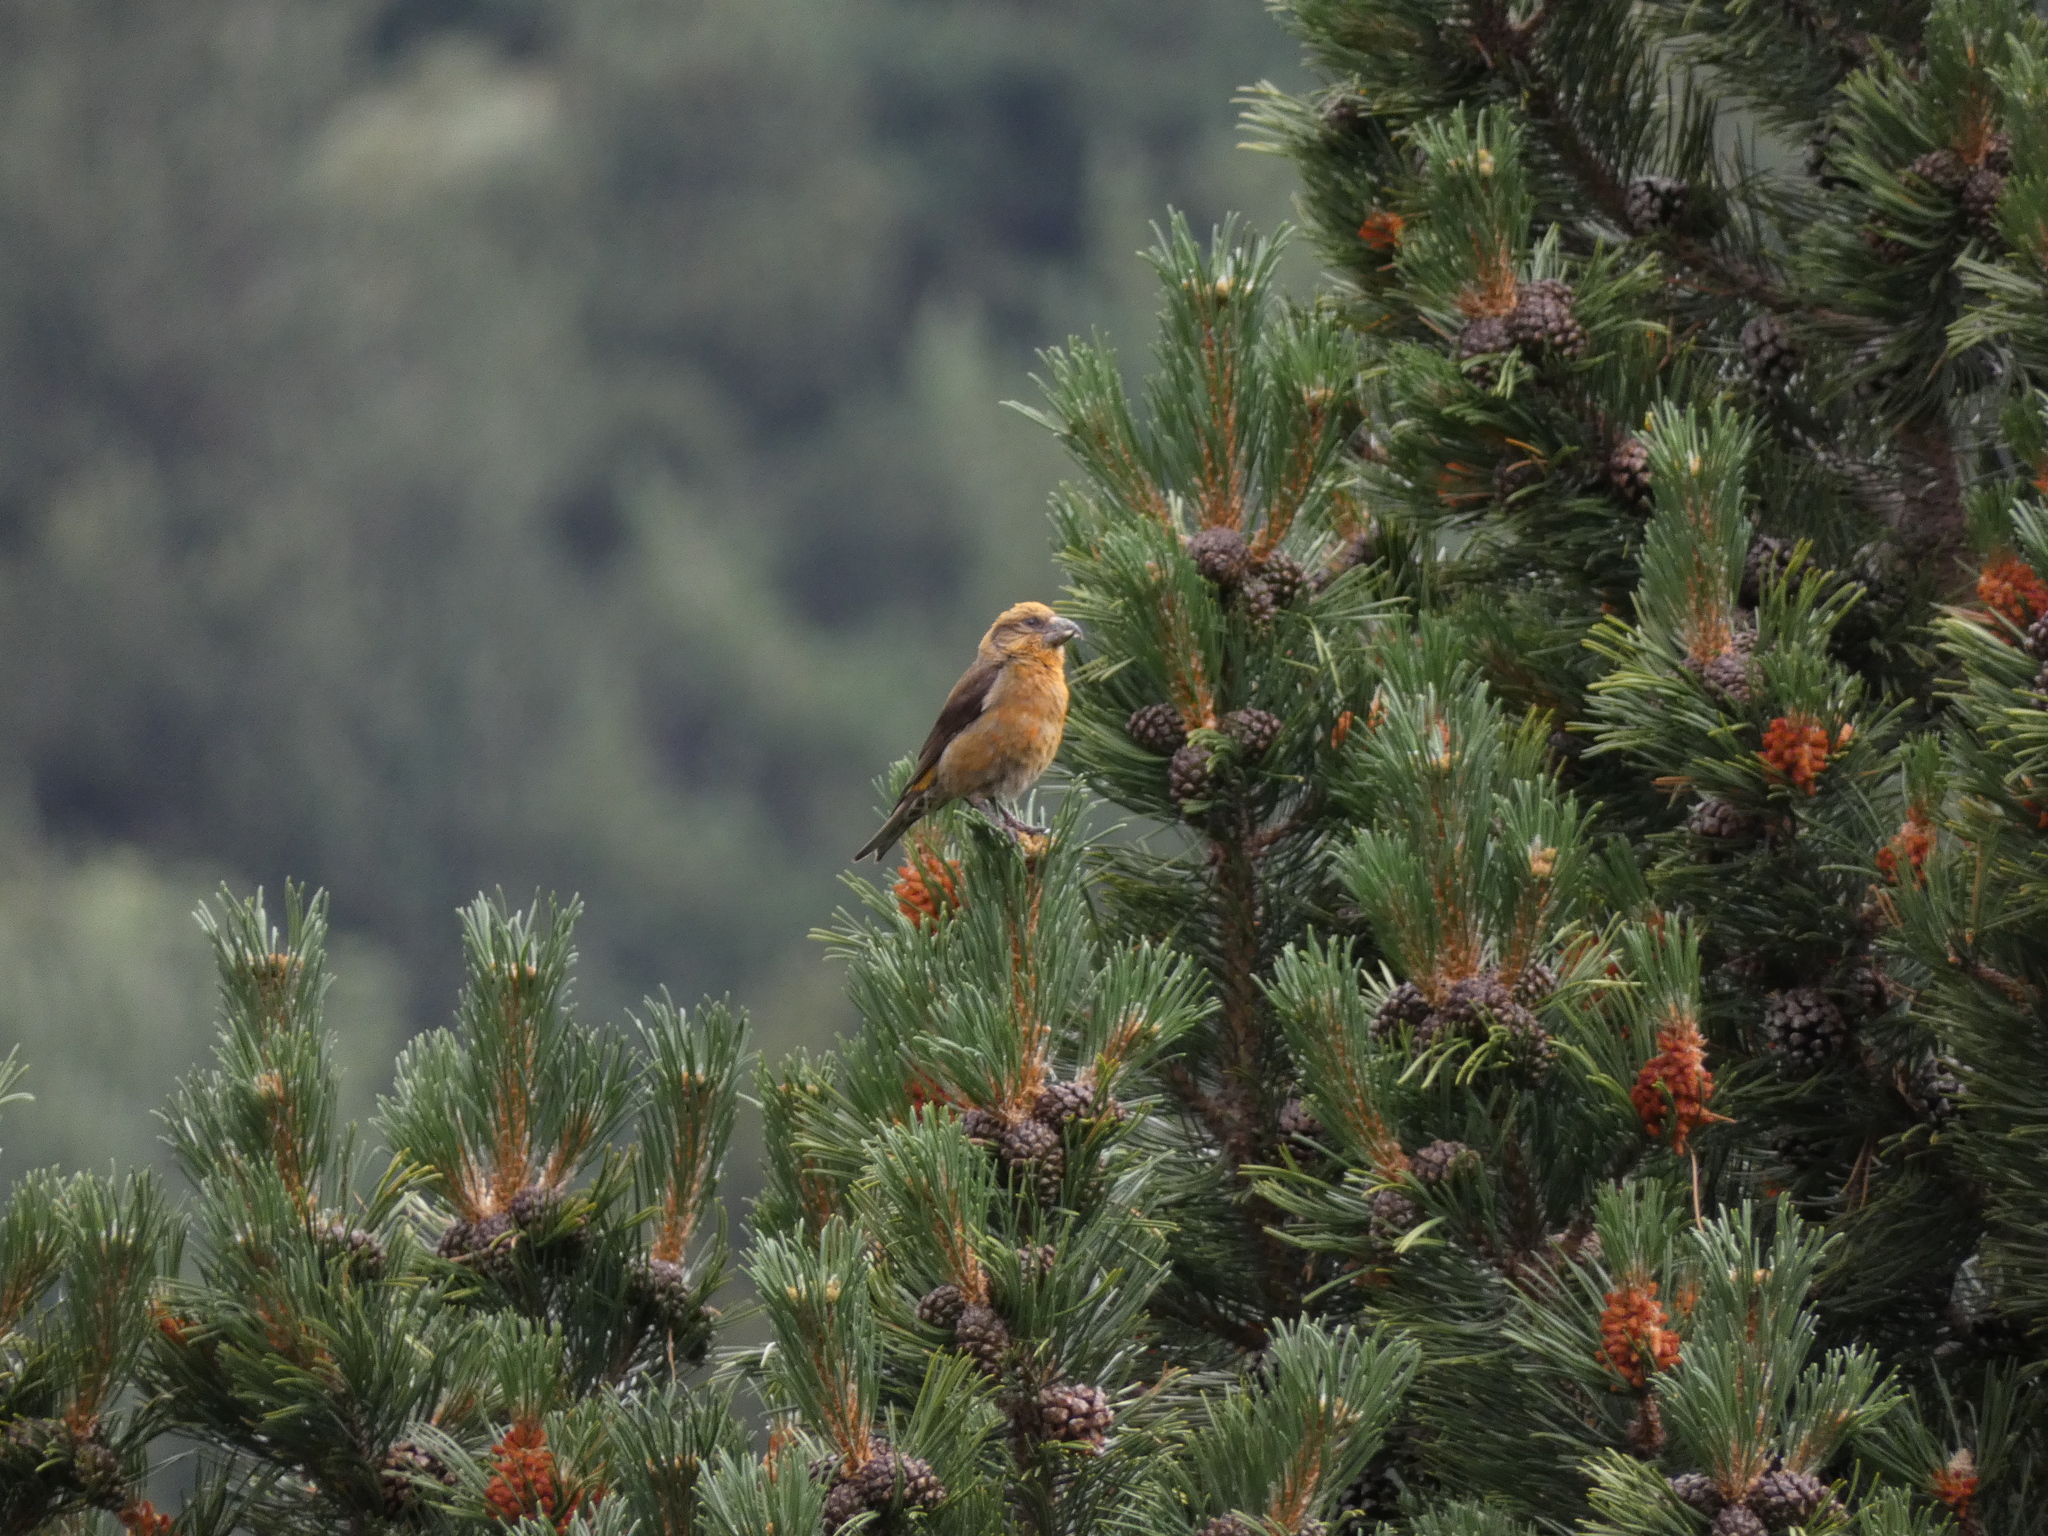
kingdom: Animalia
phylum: Chordata
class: Aves
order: Passeriformes
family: Fringillidae
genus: Loxia
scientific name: Loxia curvirostra
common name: Red crossbill
